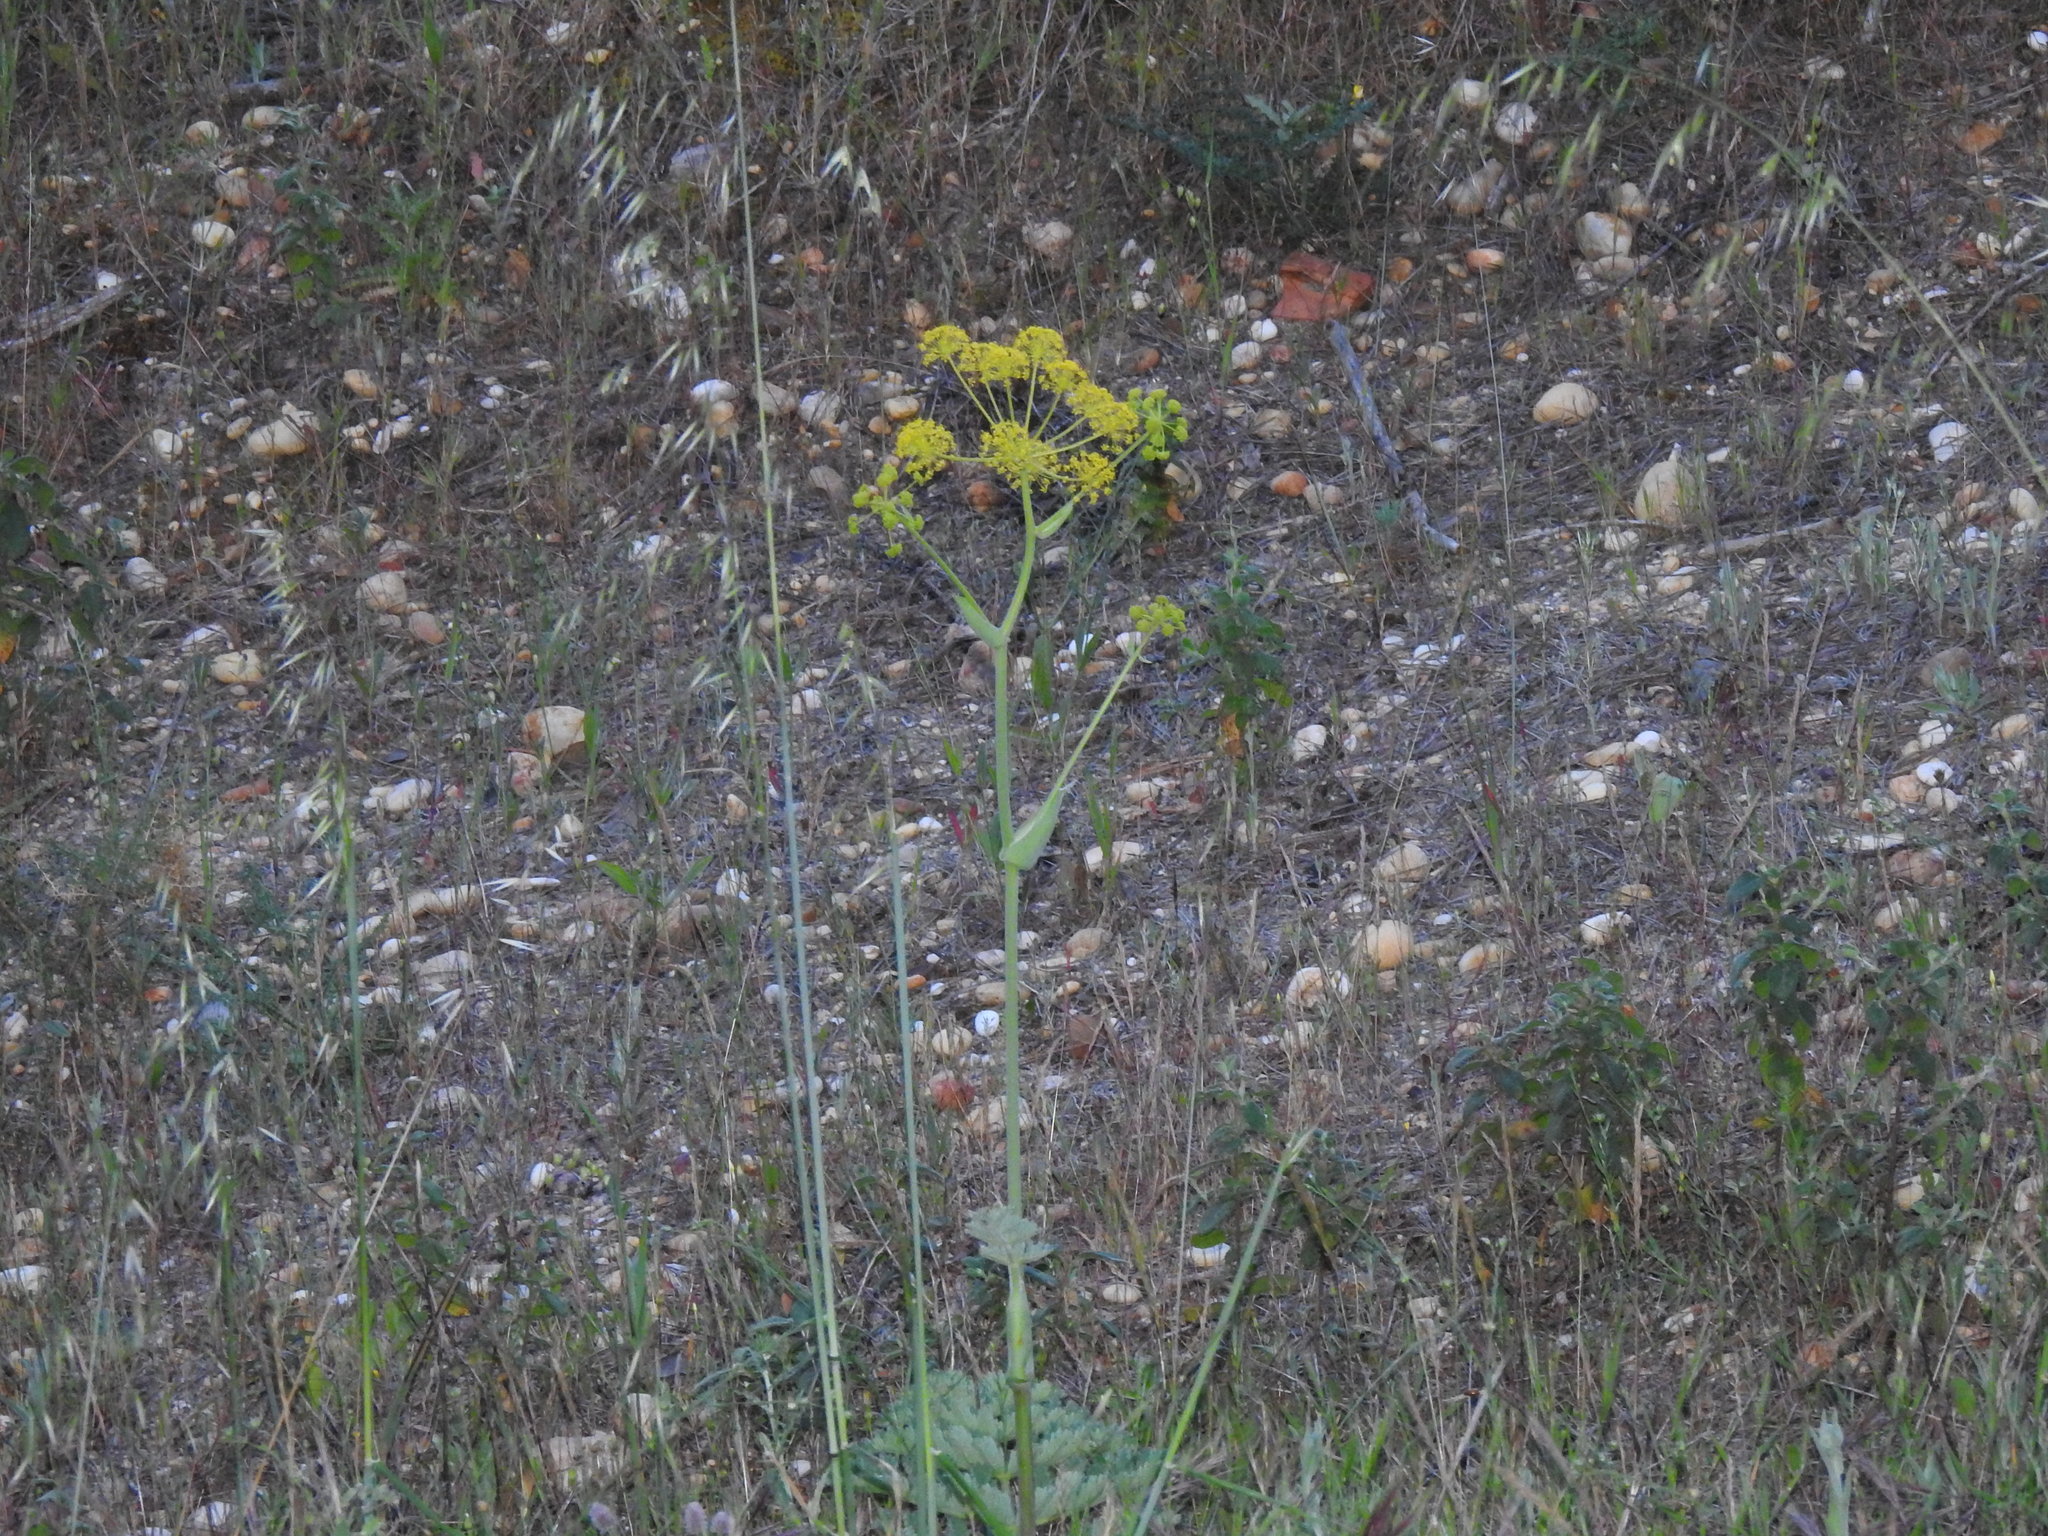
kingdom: Plantae
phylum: Tracheophyta
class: Magnoliopsida
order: Apiales
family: Apiaceae
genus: Thapsia
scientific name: Thapsia villosa
